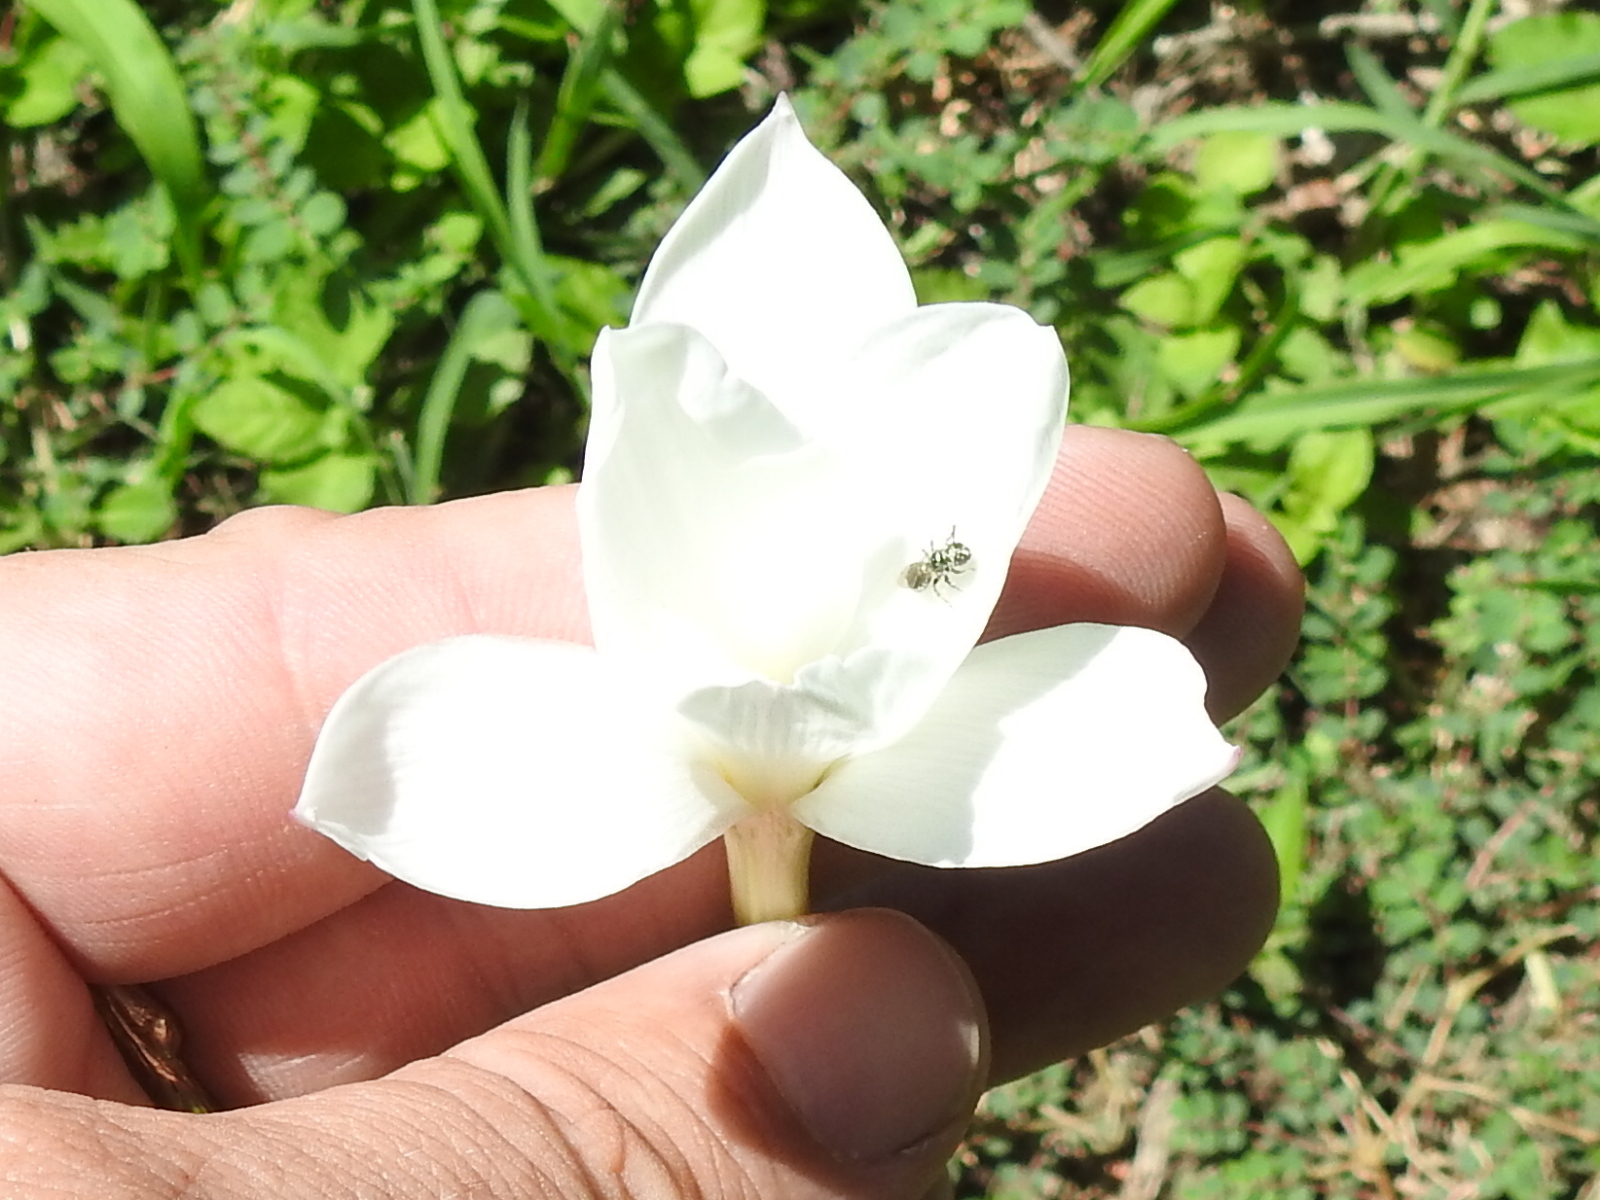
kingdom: Plantae
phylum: Tracheophyta
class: Liliopsida
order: Asparagales
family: Amaryllidaceae
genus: Zephyranthes
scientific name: Zephyranthes drummondii
